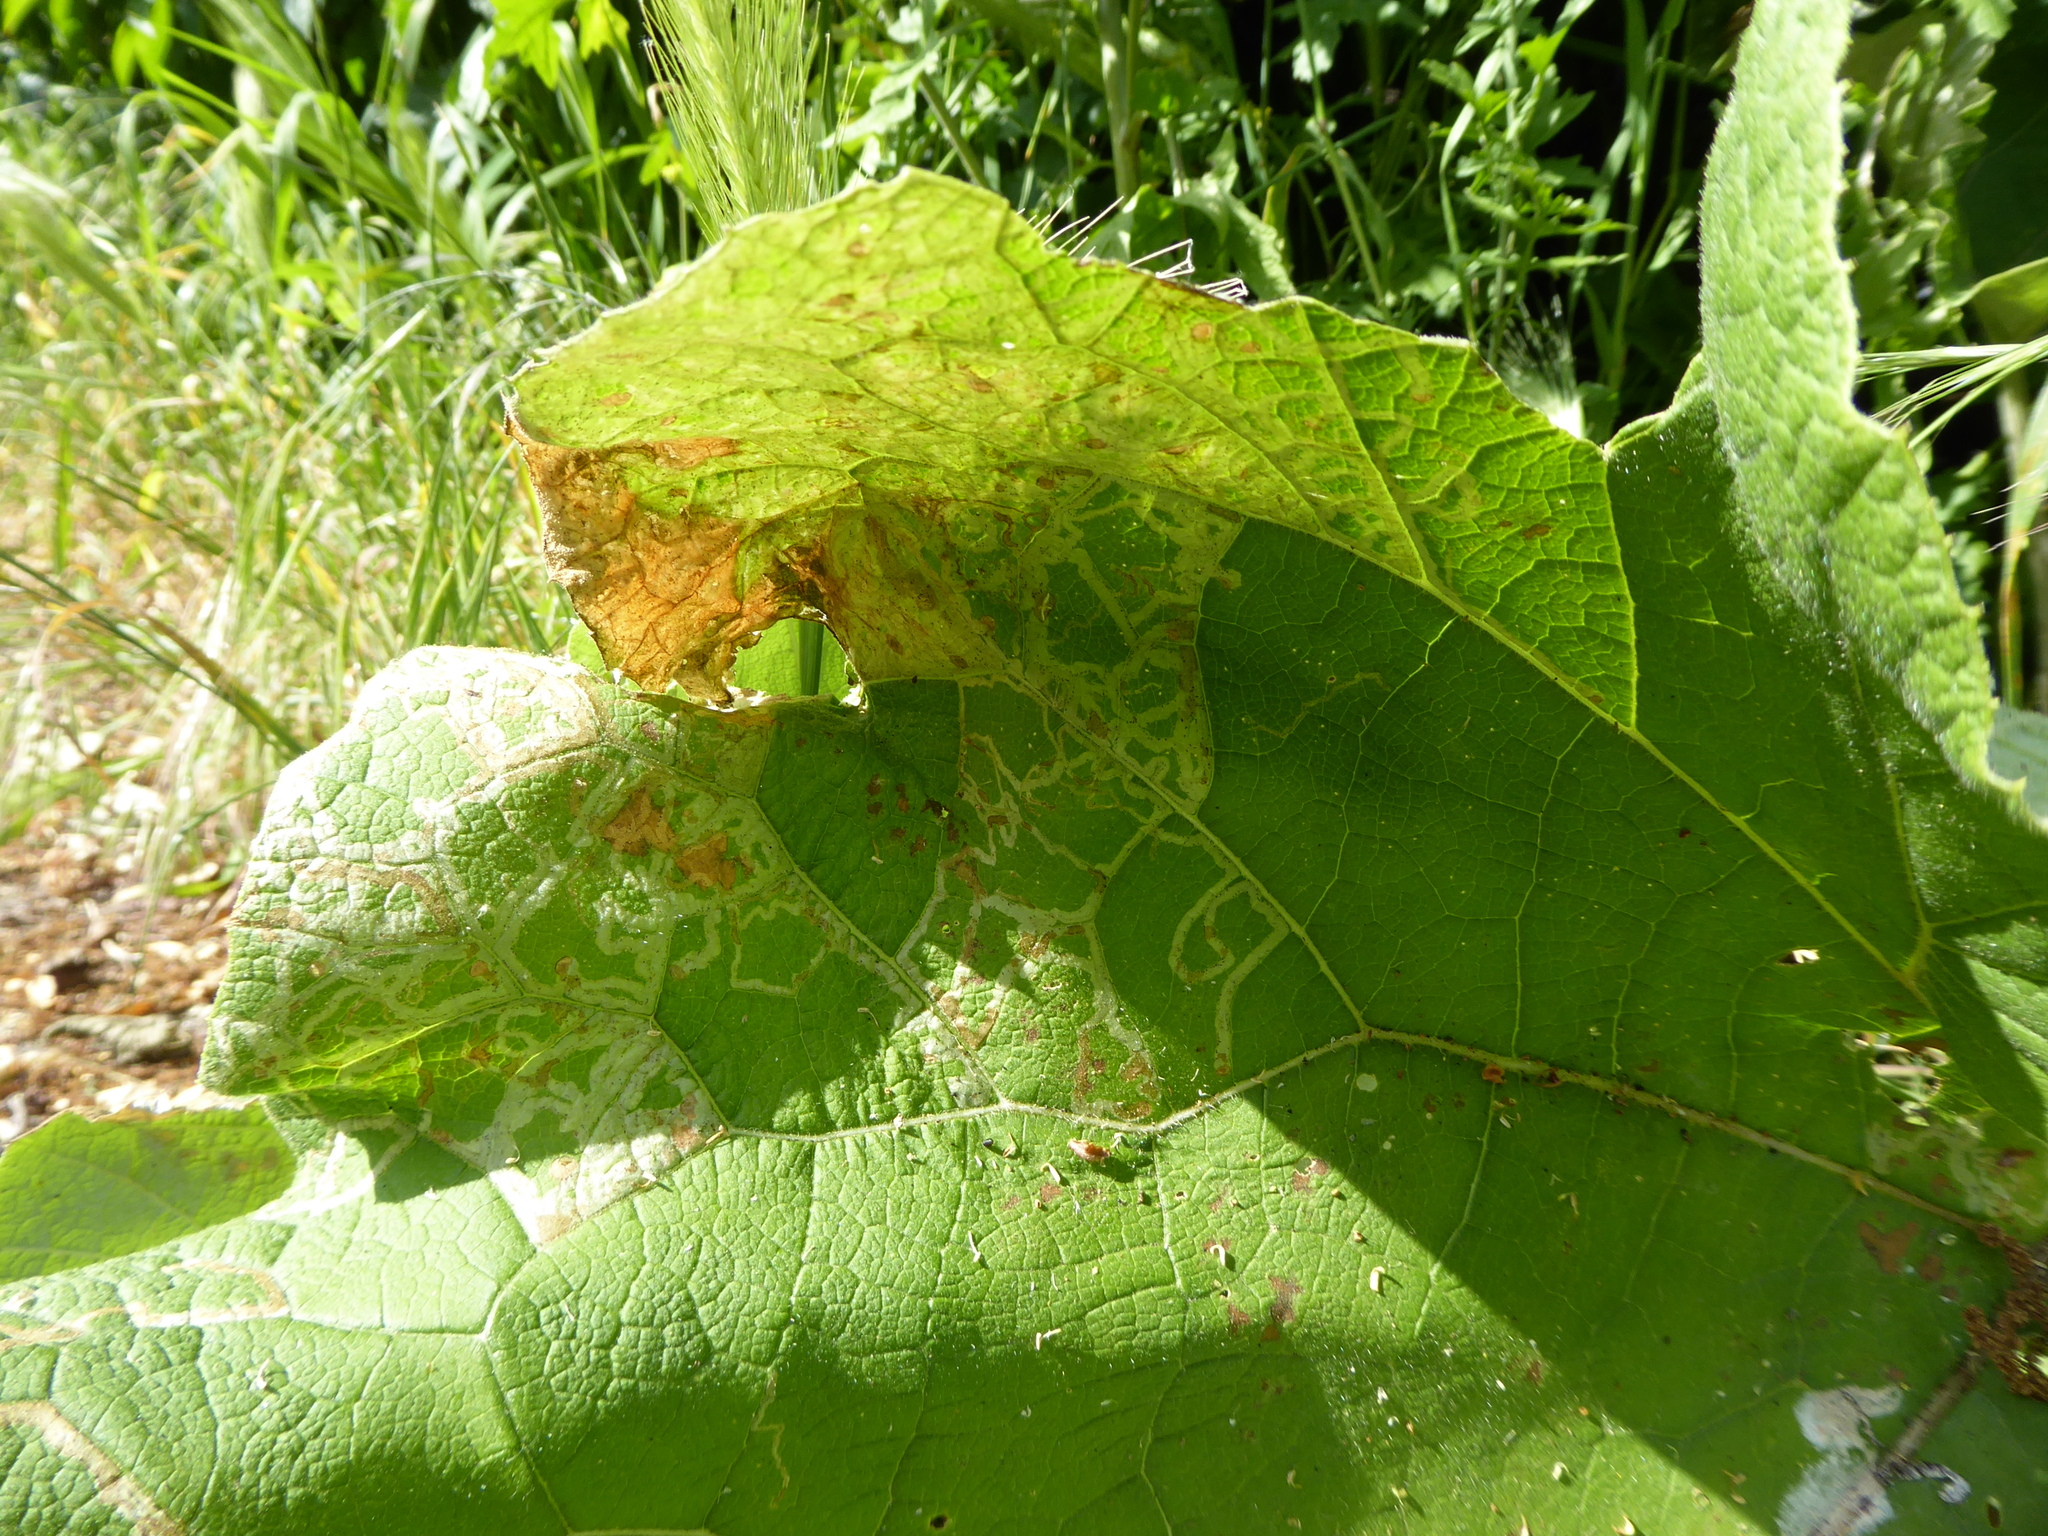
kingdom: Animalia
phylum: Arthropoda
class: Insecta
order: Diptera
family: Agromyzidae
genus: Phytomyza
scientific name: Phytomyza lappae
